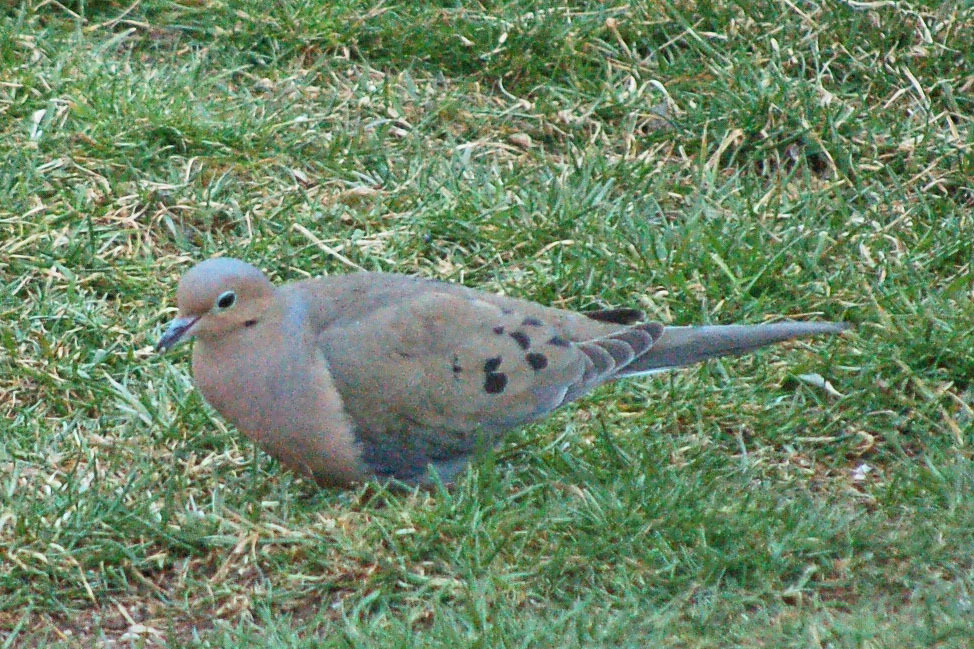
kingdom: Animalia
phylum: Chordata
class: Aves
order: Columbiformes
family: Columbidae
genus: Zenaida
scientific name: Zenaida macroura
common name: Mourning dove
